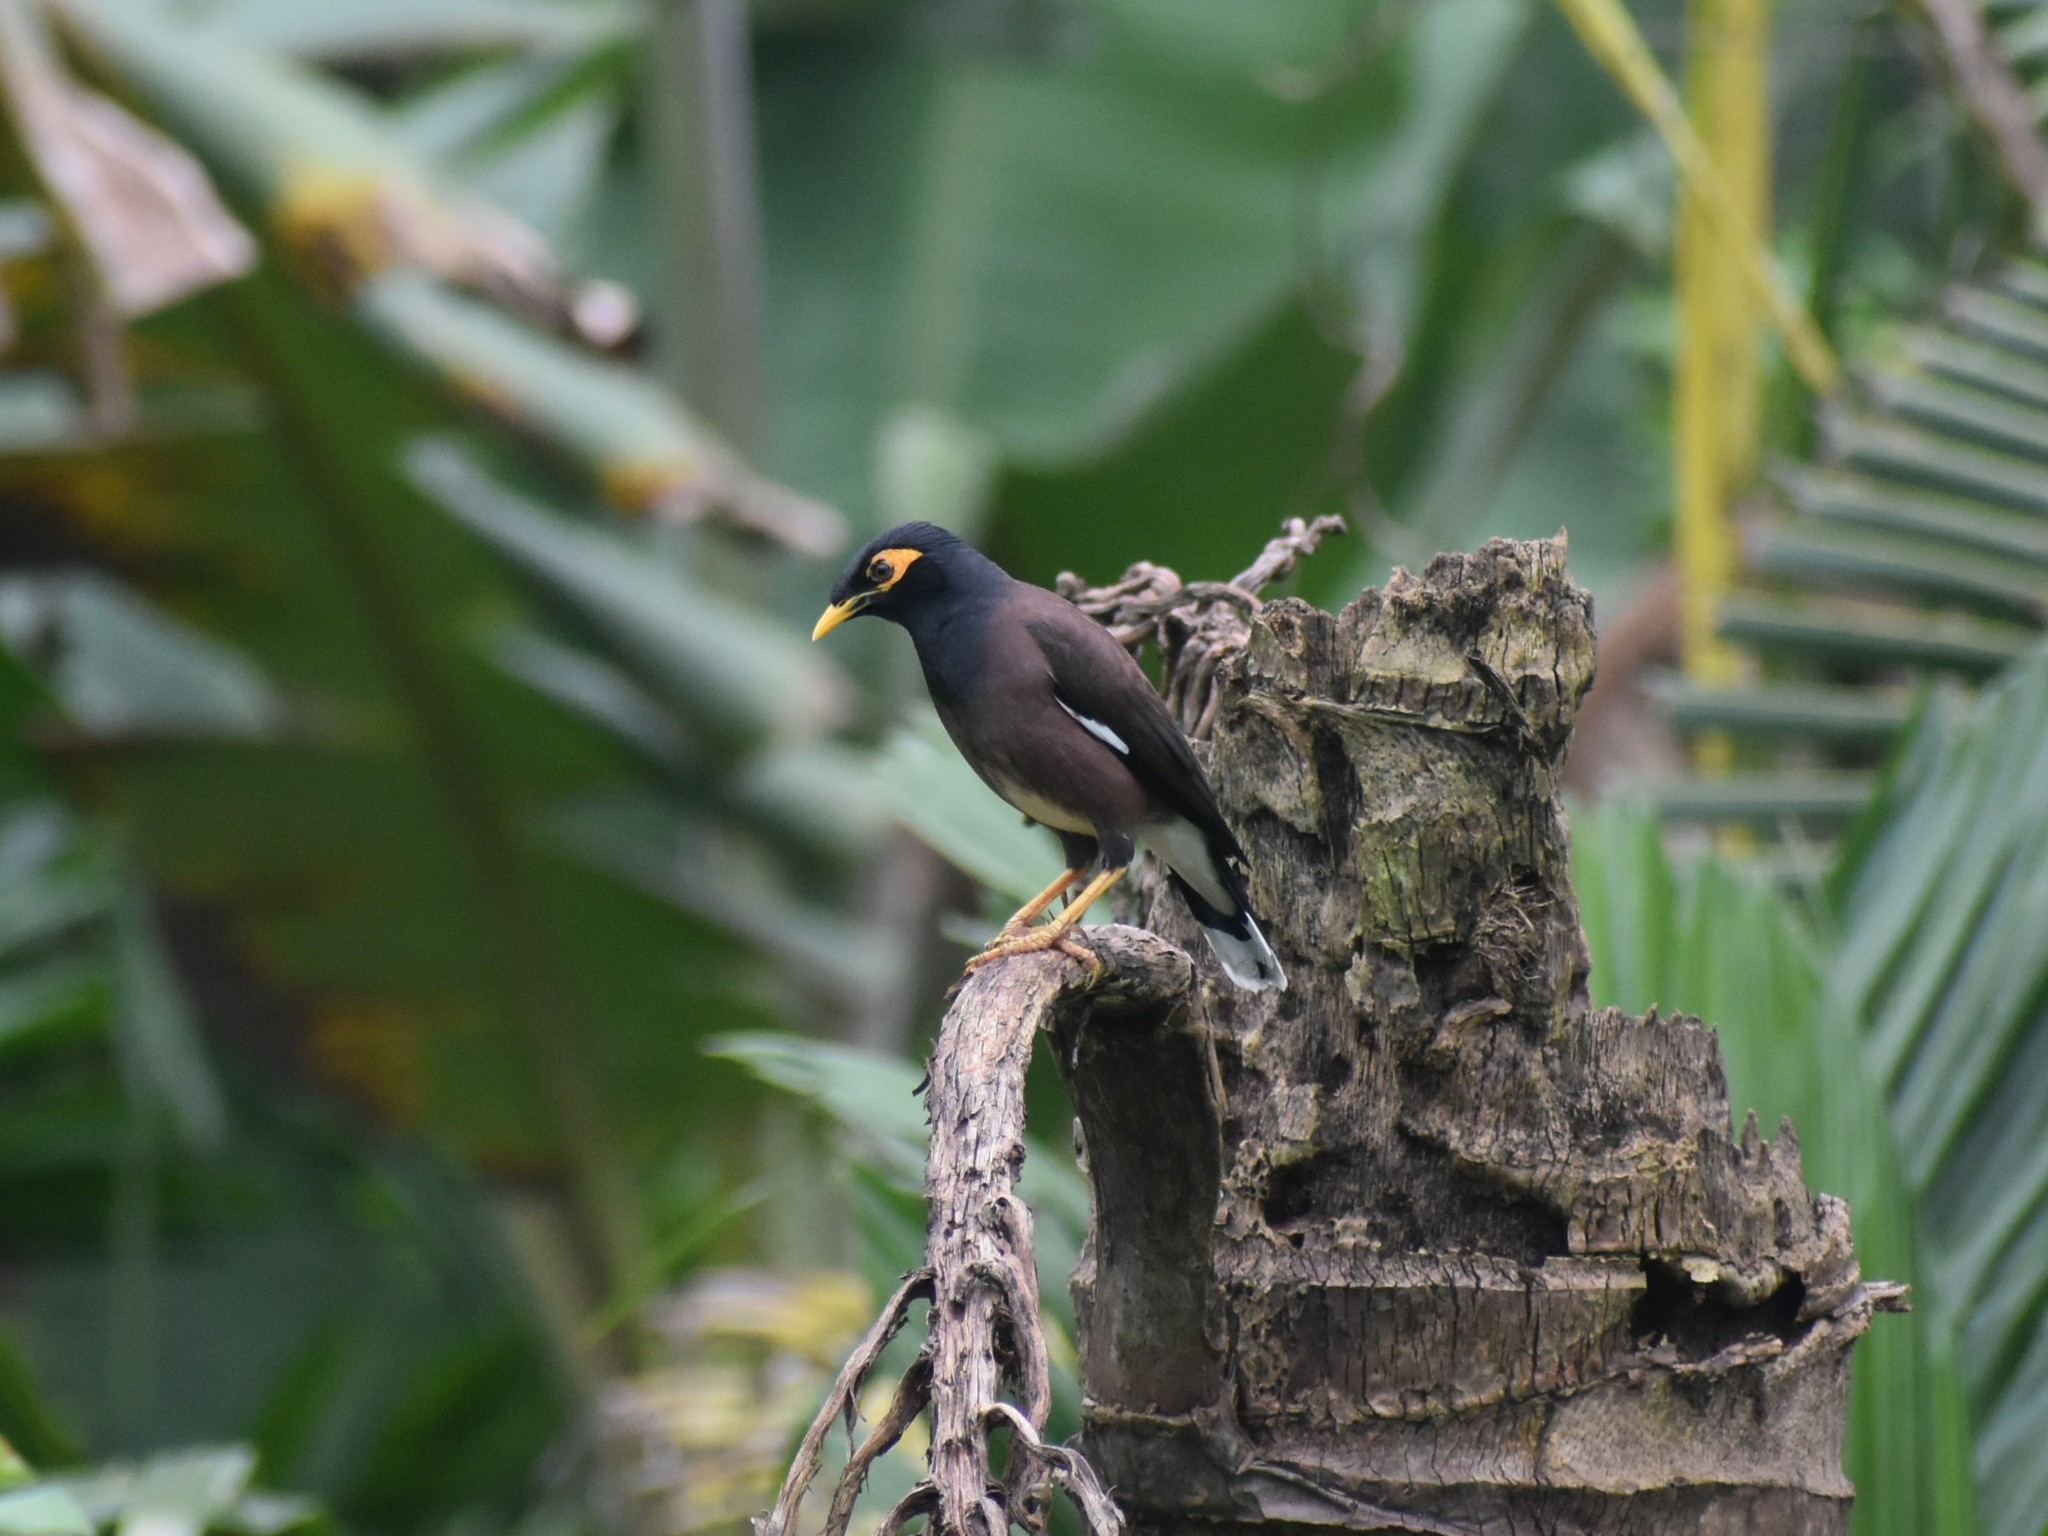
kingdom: Animalia
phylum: Chordata
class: Aves
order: Passeriformes
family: Sturnidae
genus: Acridotheres
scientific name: Acridotheres tristis
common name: Common myna
